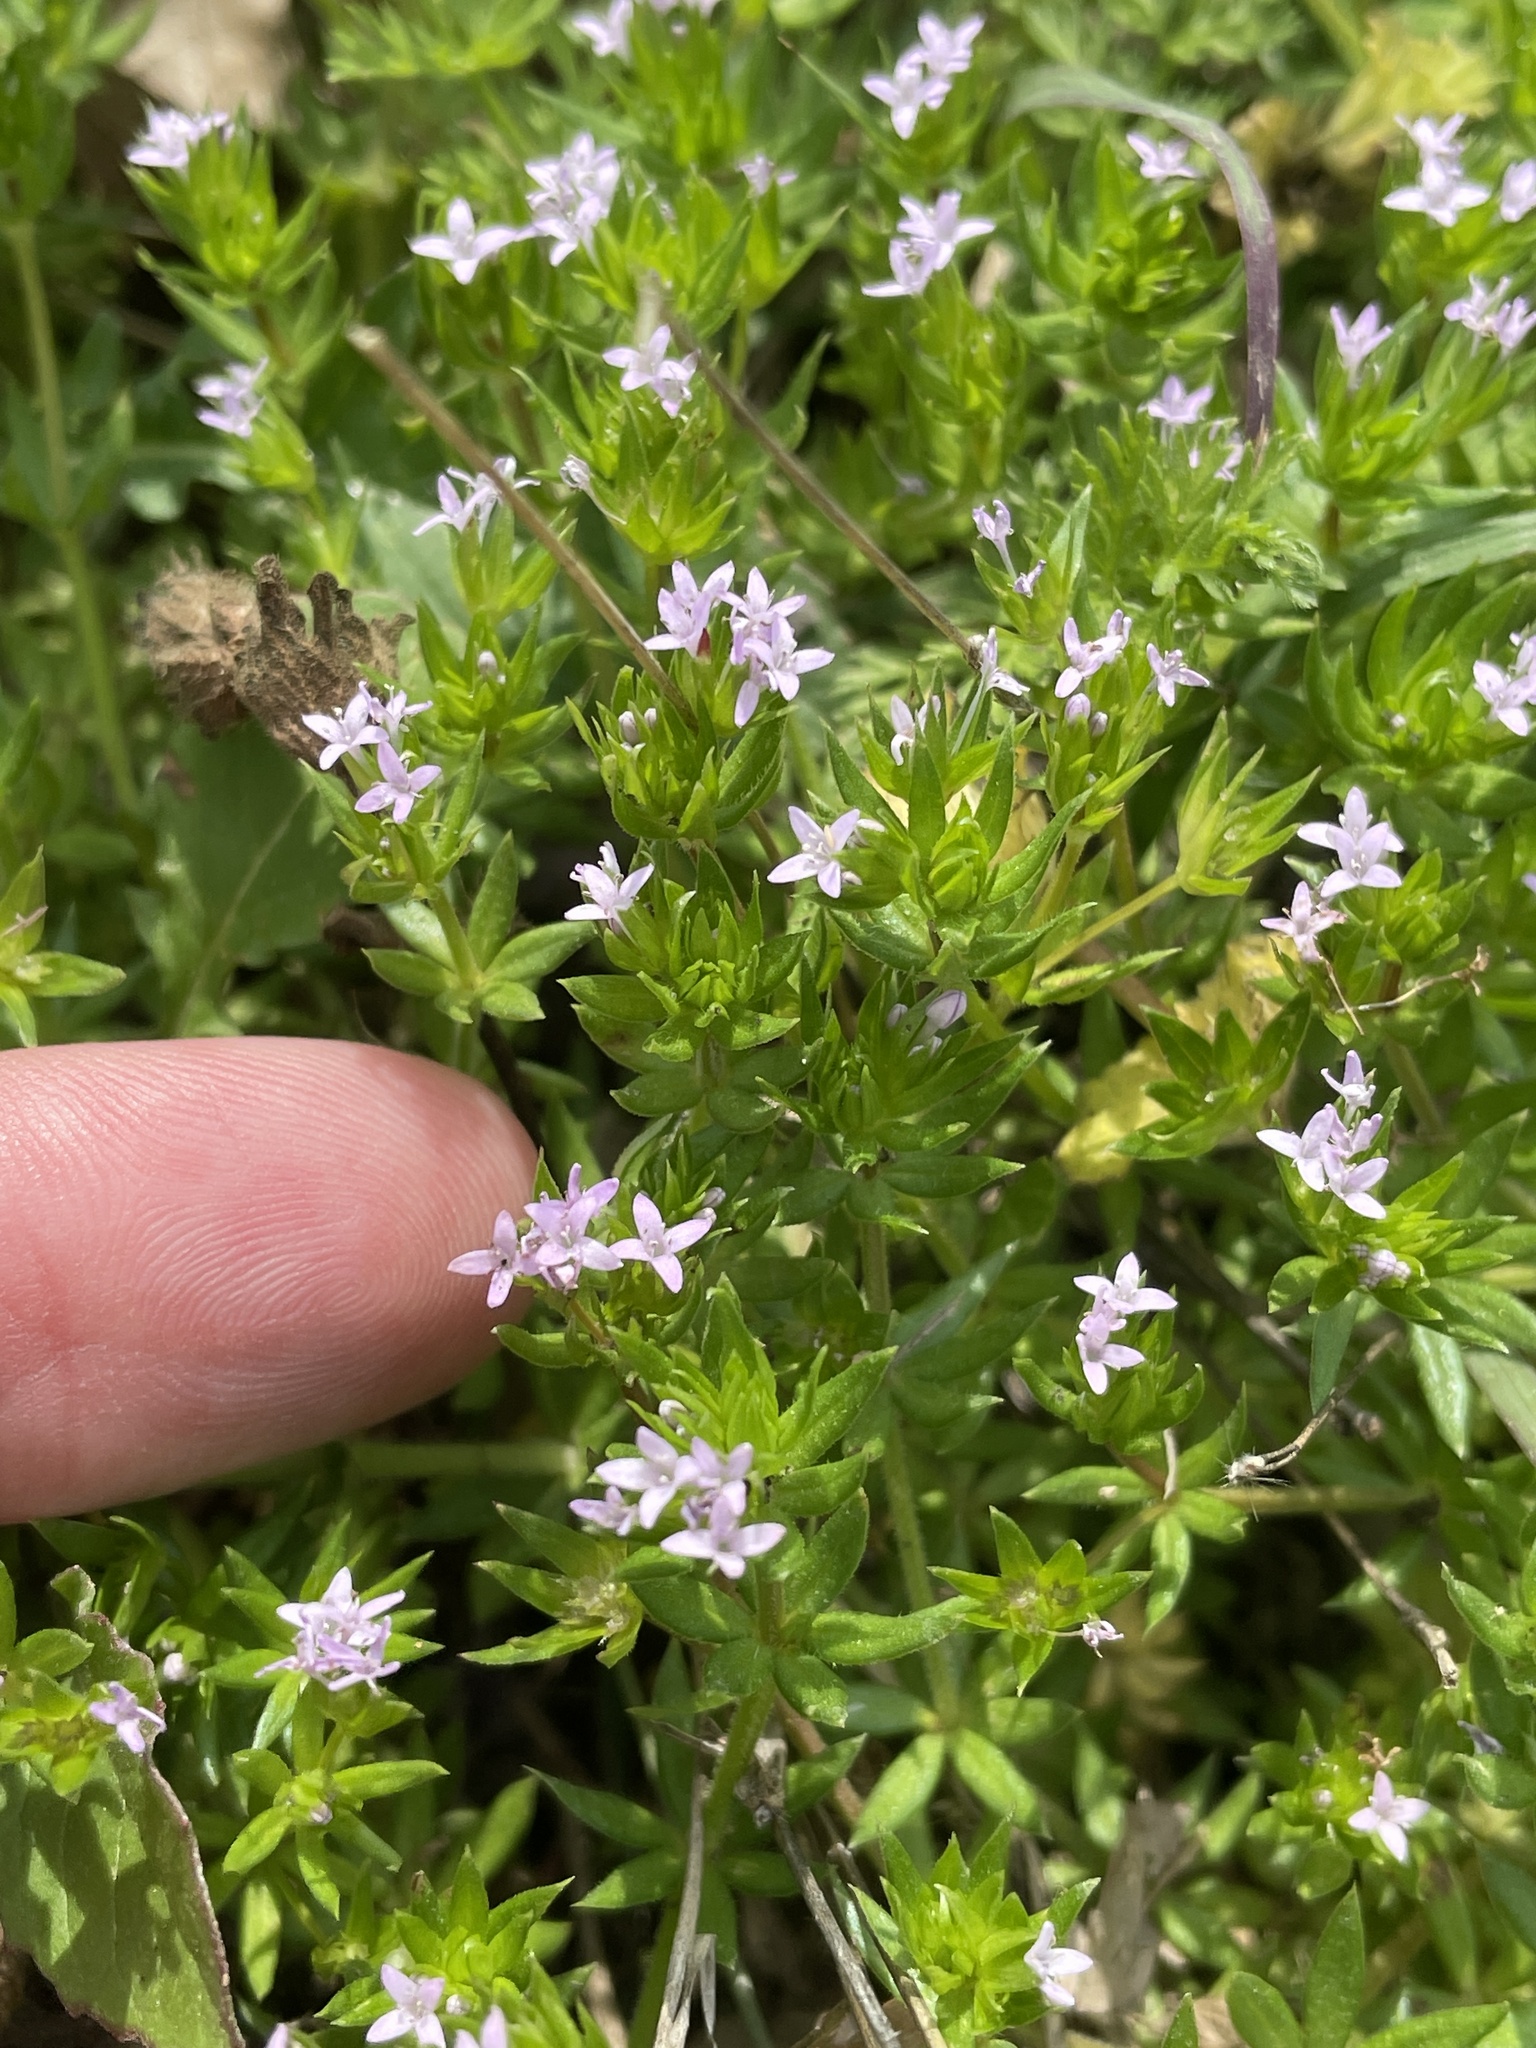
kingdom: Plantae
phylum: Tracheophyta
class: Magnoliopsida
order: Gentianales
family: Rubiaceae
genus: Sherardia
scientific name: Sherardia arvensis
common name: Field madder
